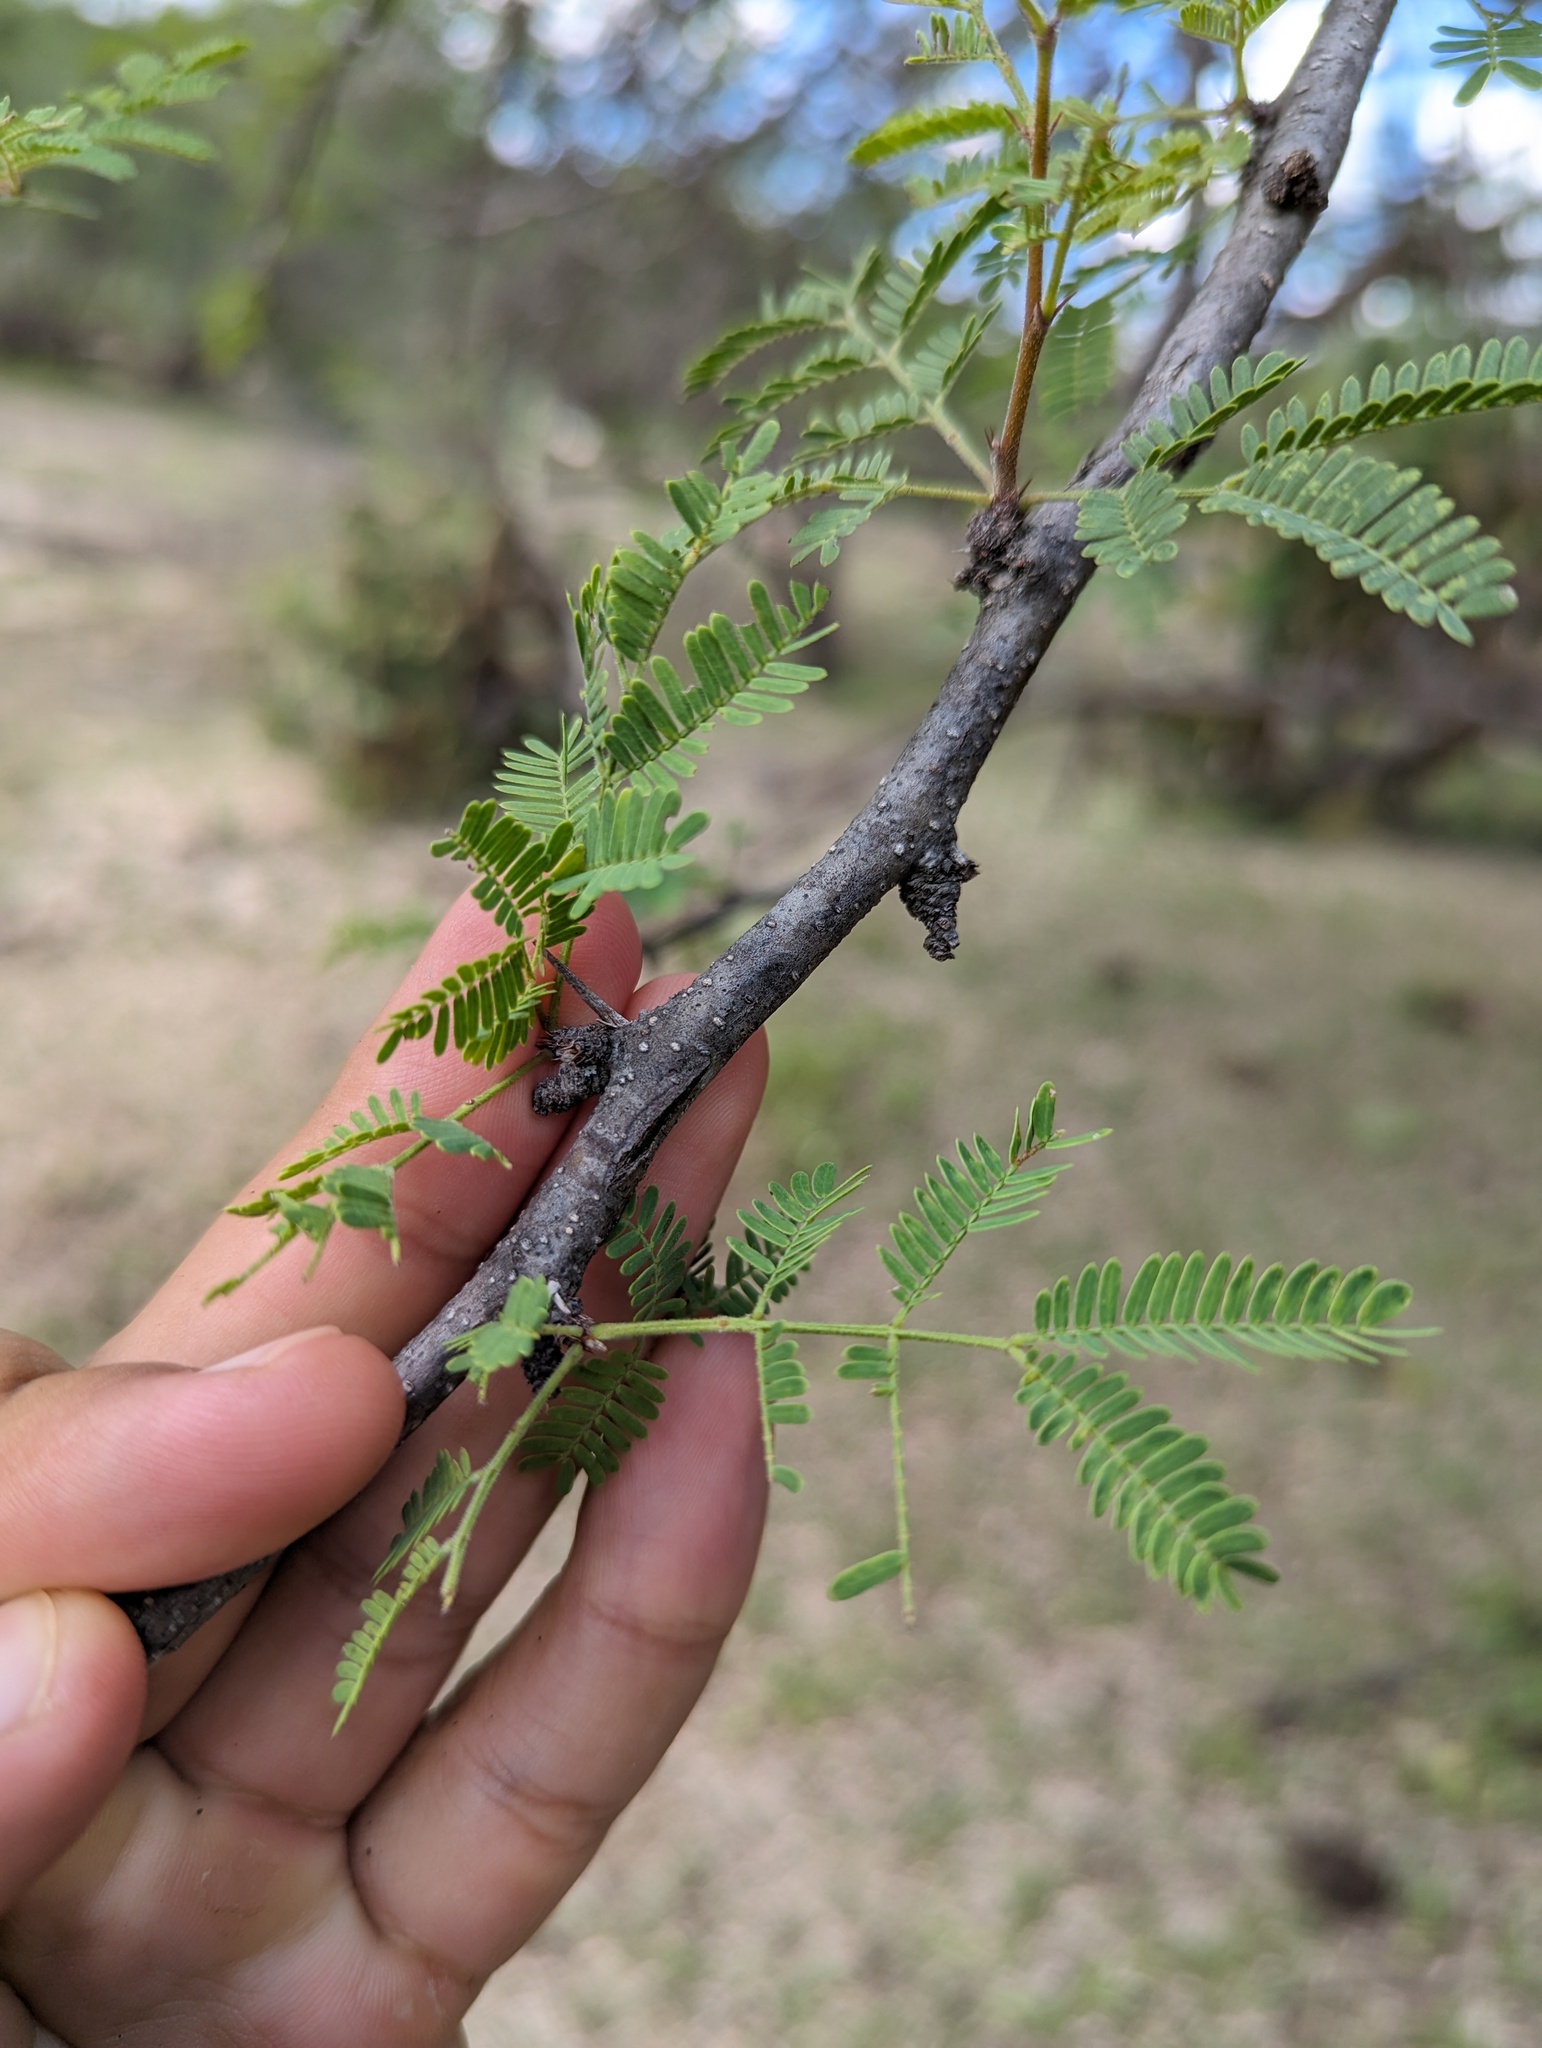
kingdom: Plantae
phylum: Tracheophyta
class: Magnoliopsida
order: Fabales
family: Fabaceae
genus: Havardia
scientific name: Havardia mexicana
